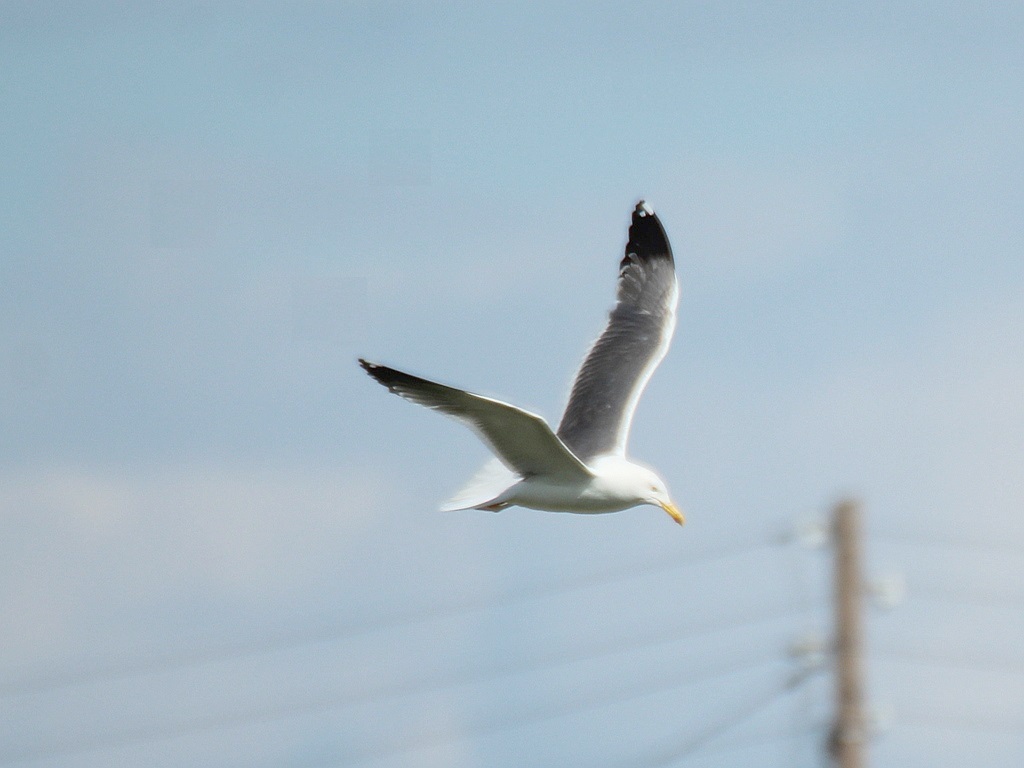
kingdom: Animalia
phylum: Chordata
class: Aves
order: Charadriiformes
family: Laridae
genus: Larus
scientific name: Larus fuscus
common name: Lesser black-backed gull
